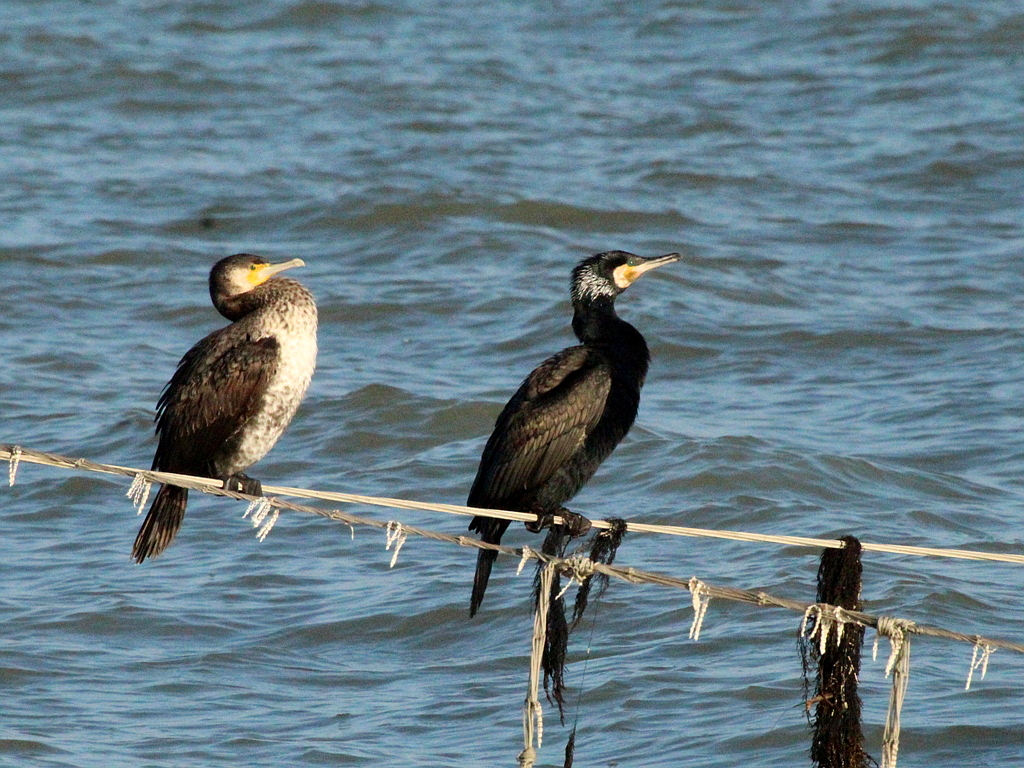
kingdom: Animalia
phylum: Chordata
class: Aves
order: Suliformes
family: Phalacrocoracidae
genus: Phalacrocorax
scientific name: Phalacrocorax carbo
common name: Great cormorant
